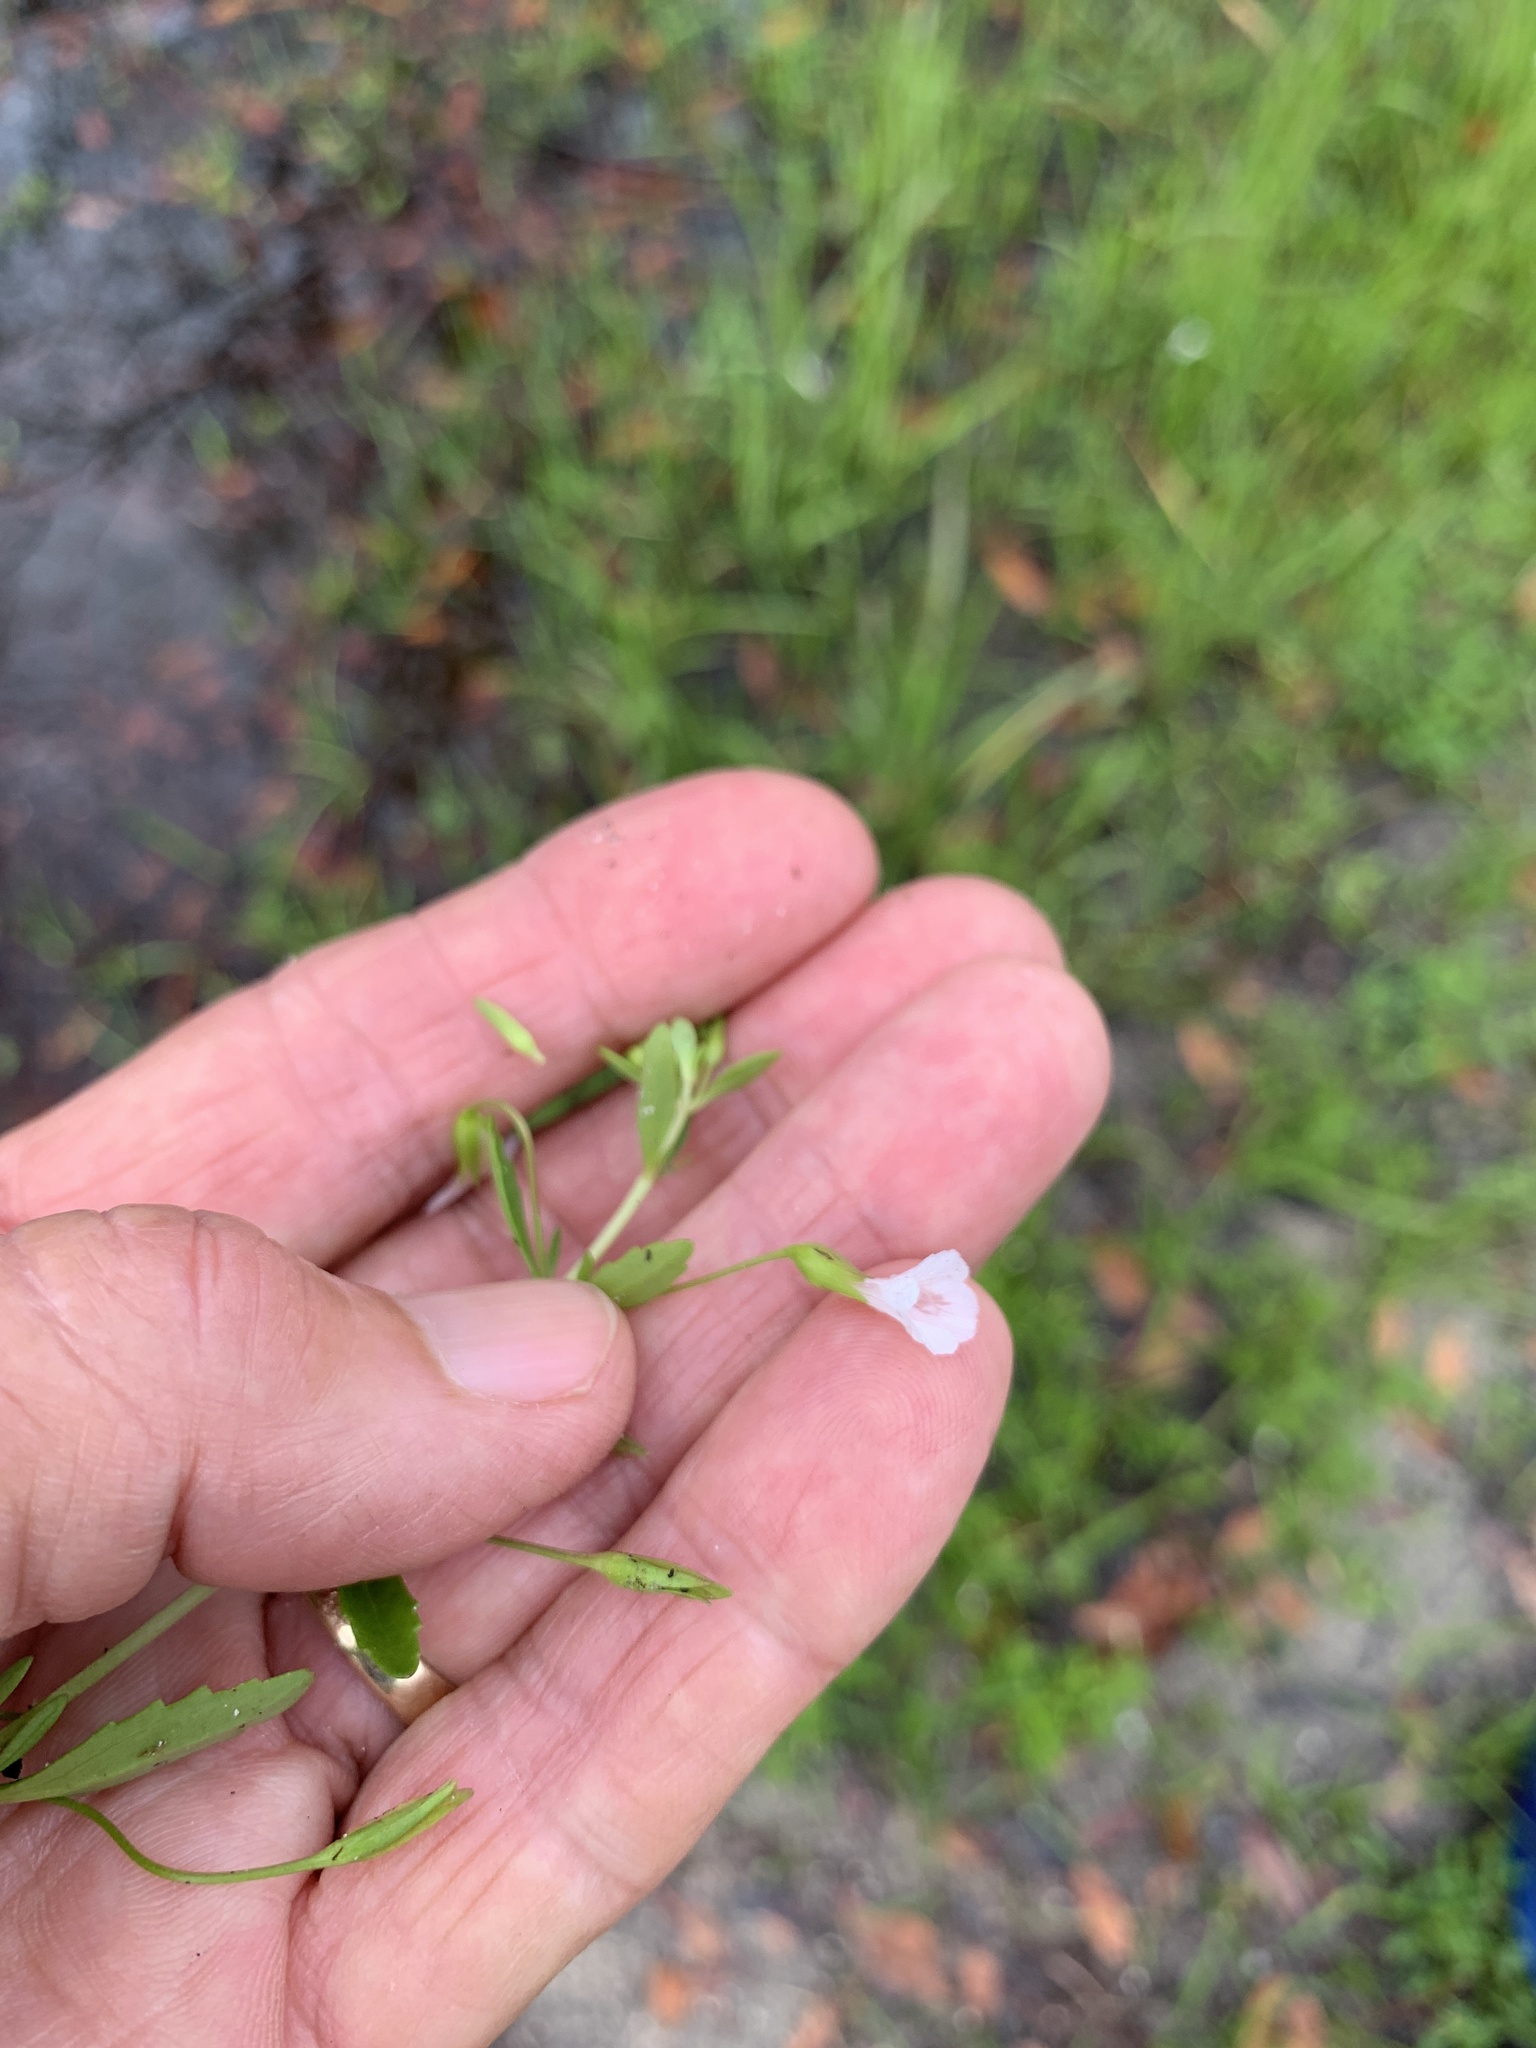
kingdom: Plantae
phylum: Tracheophyta
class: Magnoliopsida
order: Lamiales
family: Plantaginaceae
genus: Mecardonia
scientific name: Mecardonia acuminata
